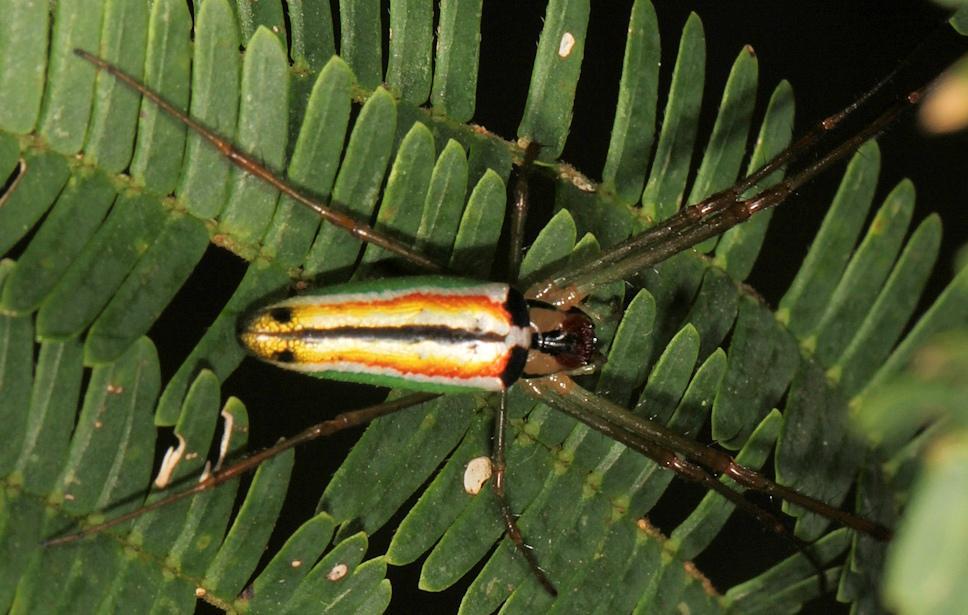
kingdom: Animalia
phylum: Arthropoda
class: Arachnida
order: Araneae
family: Tetragnathidae
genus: Leucauge
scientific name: Leucauge levanderi
